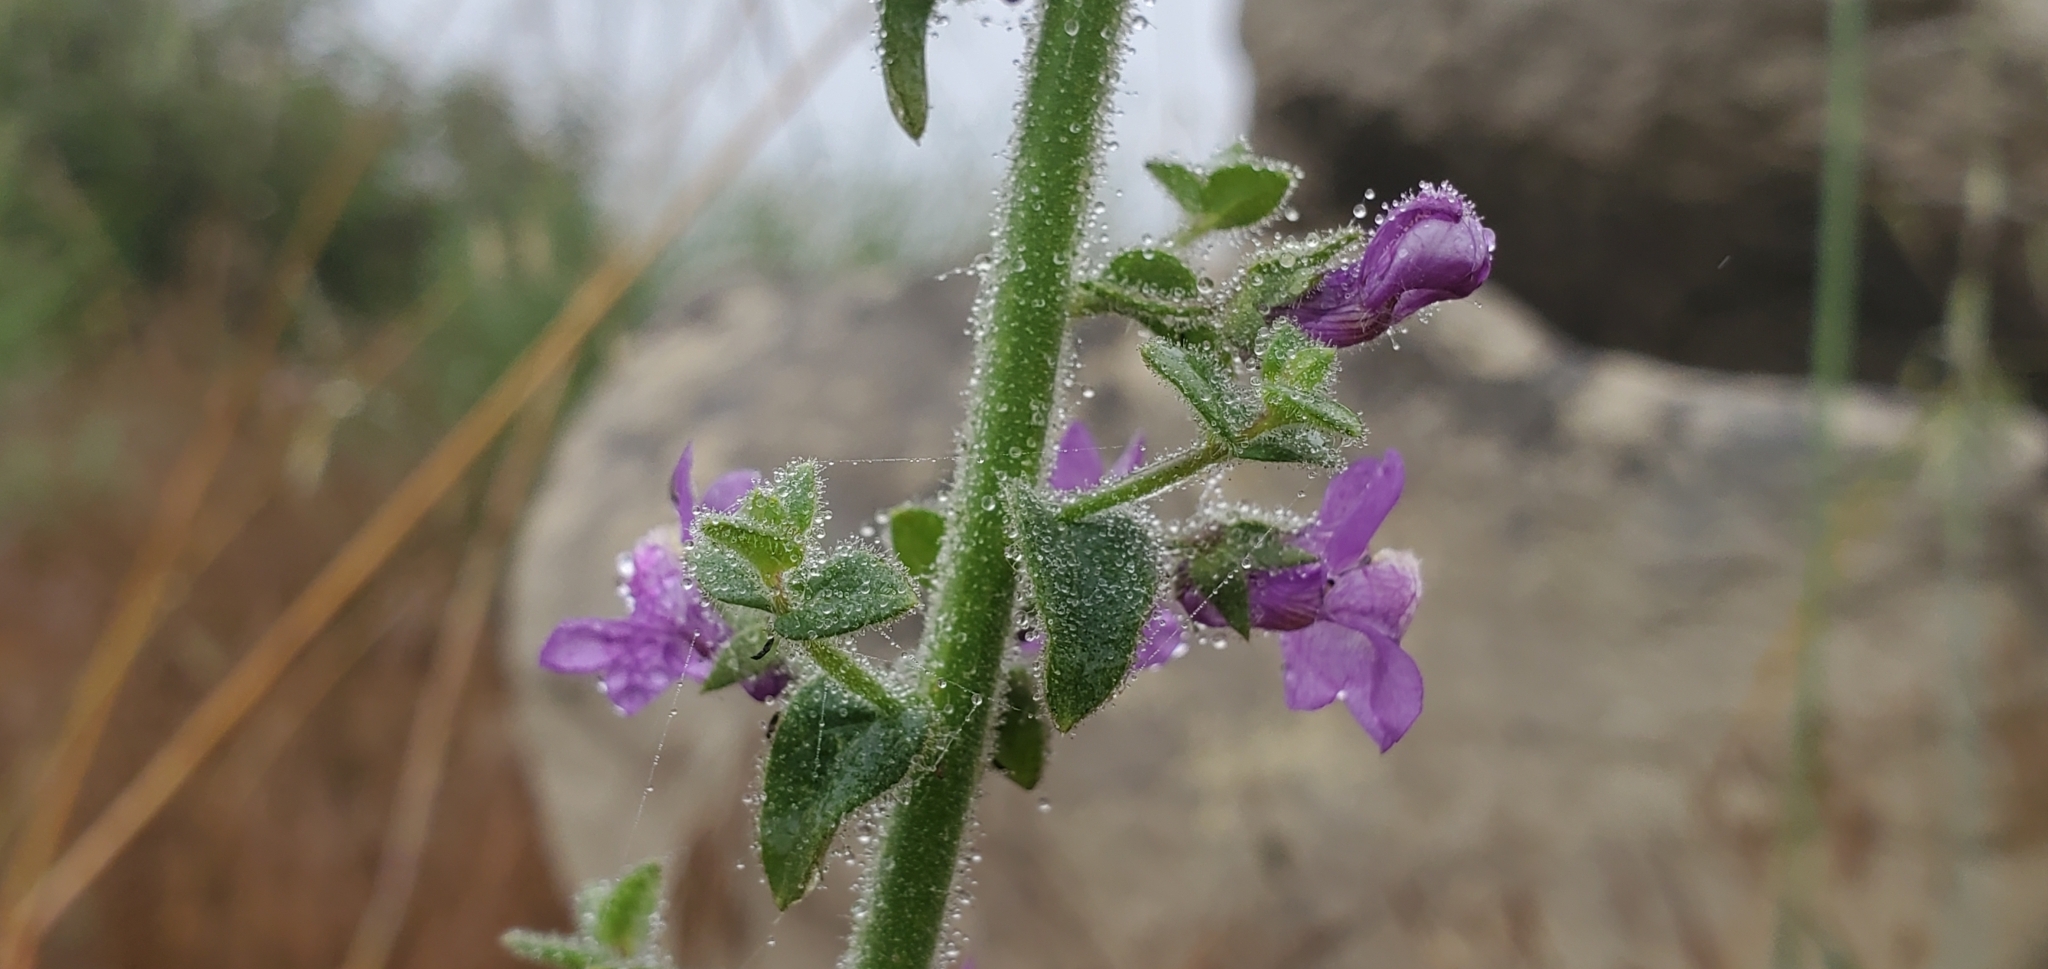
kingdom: Plantae
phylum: Tracheophyta
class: Magnoliopsida
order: Lamiales
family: Plantaginaceae
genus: Sairocarpus
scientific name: Sairocarpus nuttallianus
